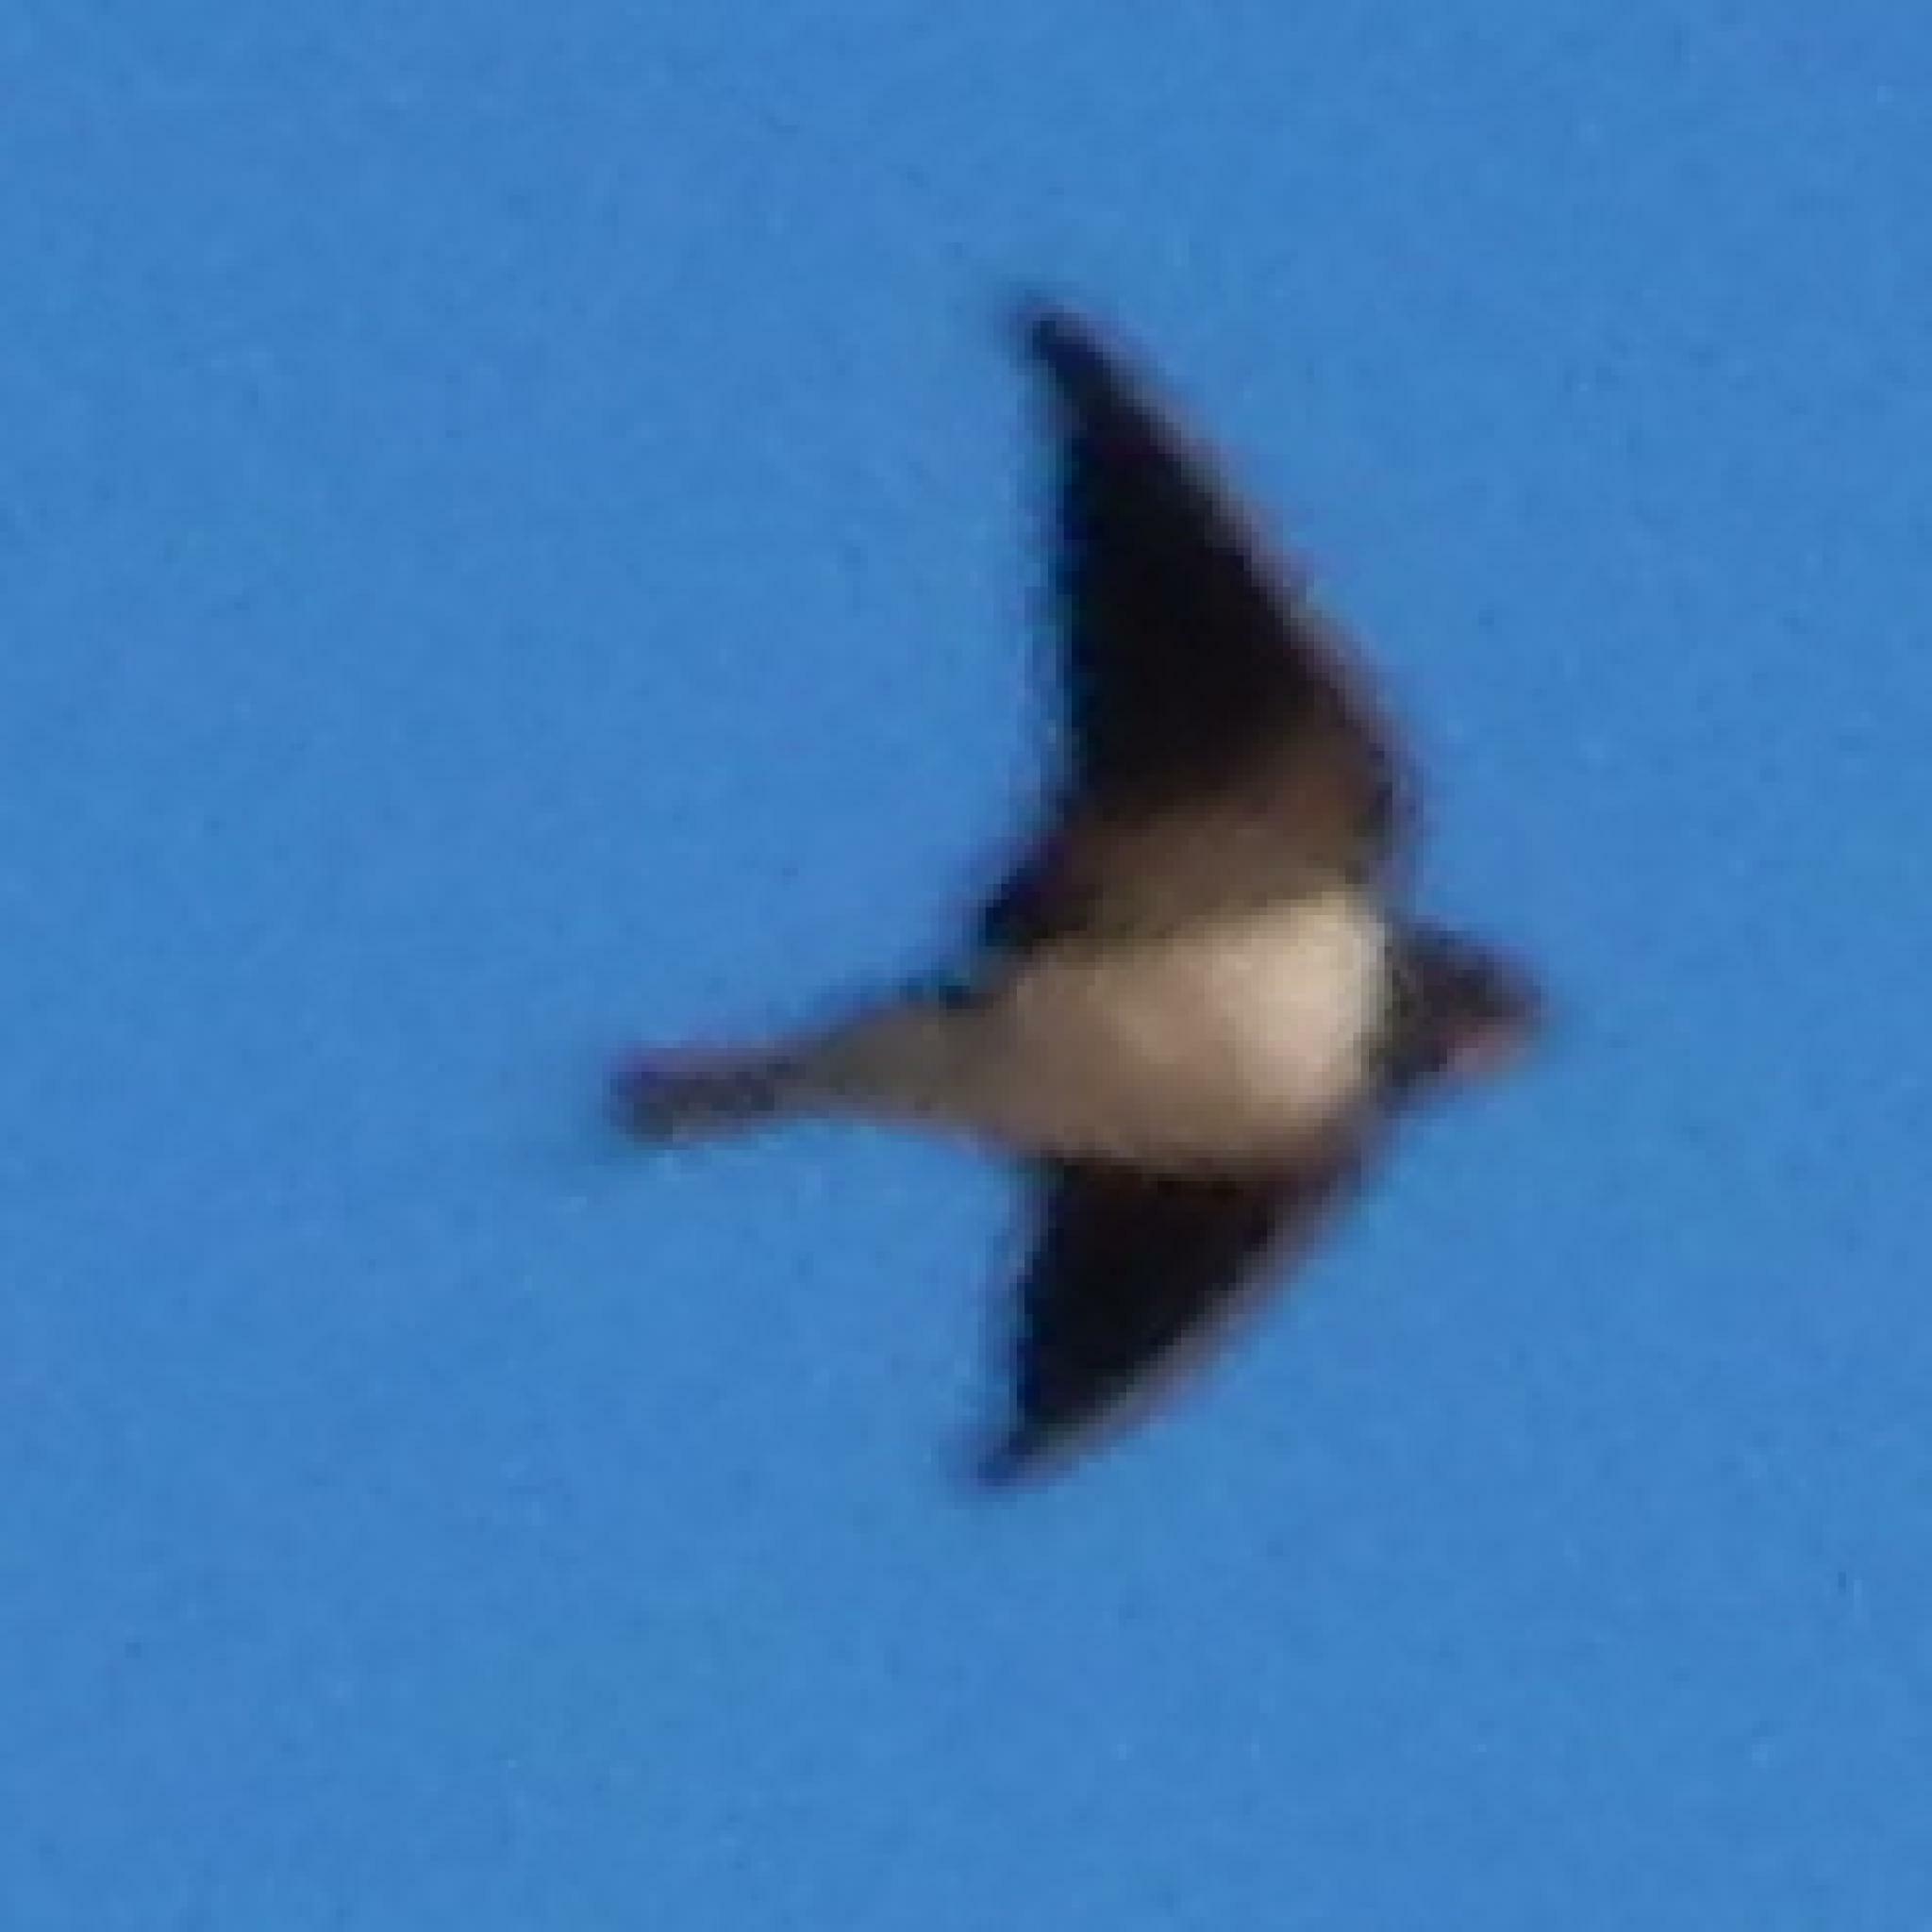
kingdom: Animalia
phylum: Chordata
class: Aves
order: Passeriformes
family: Hirundinidae
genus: Hirundo
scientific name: Hirundo rustica
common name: Barn swallow
